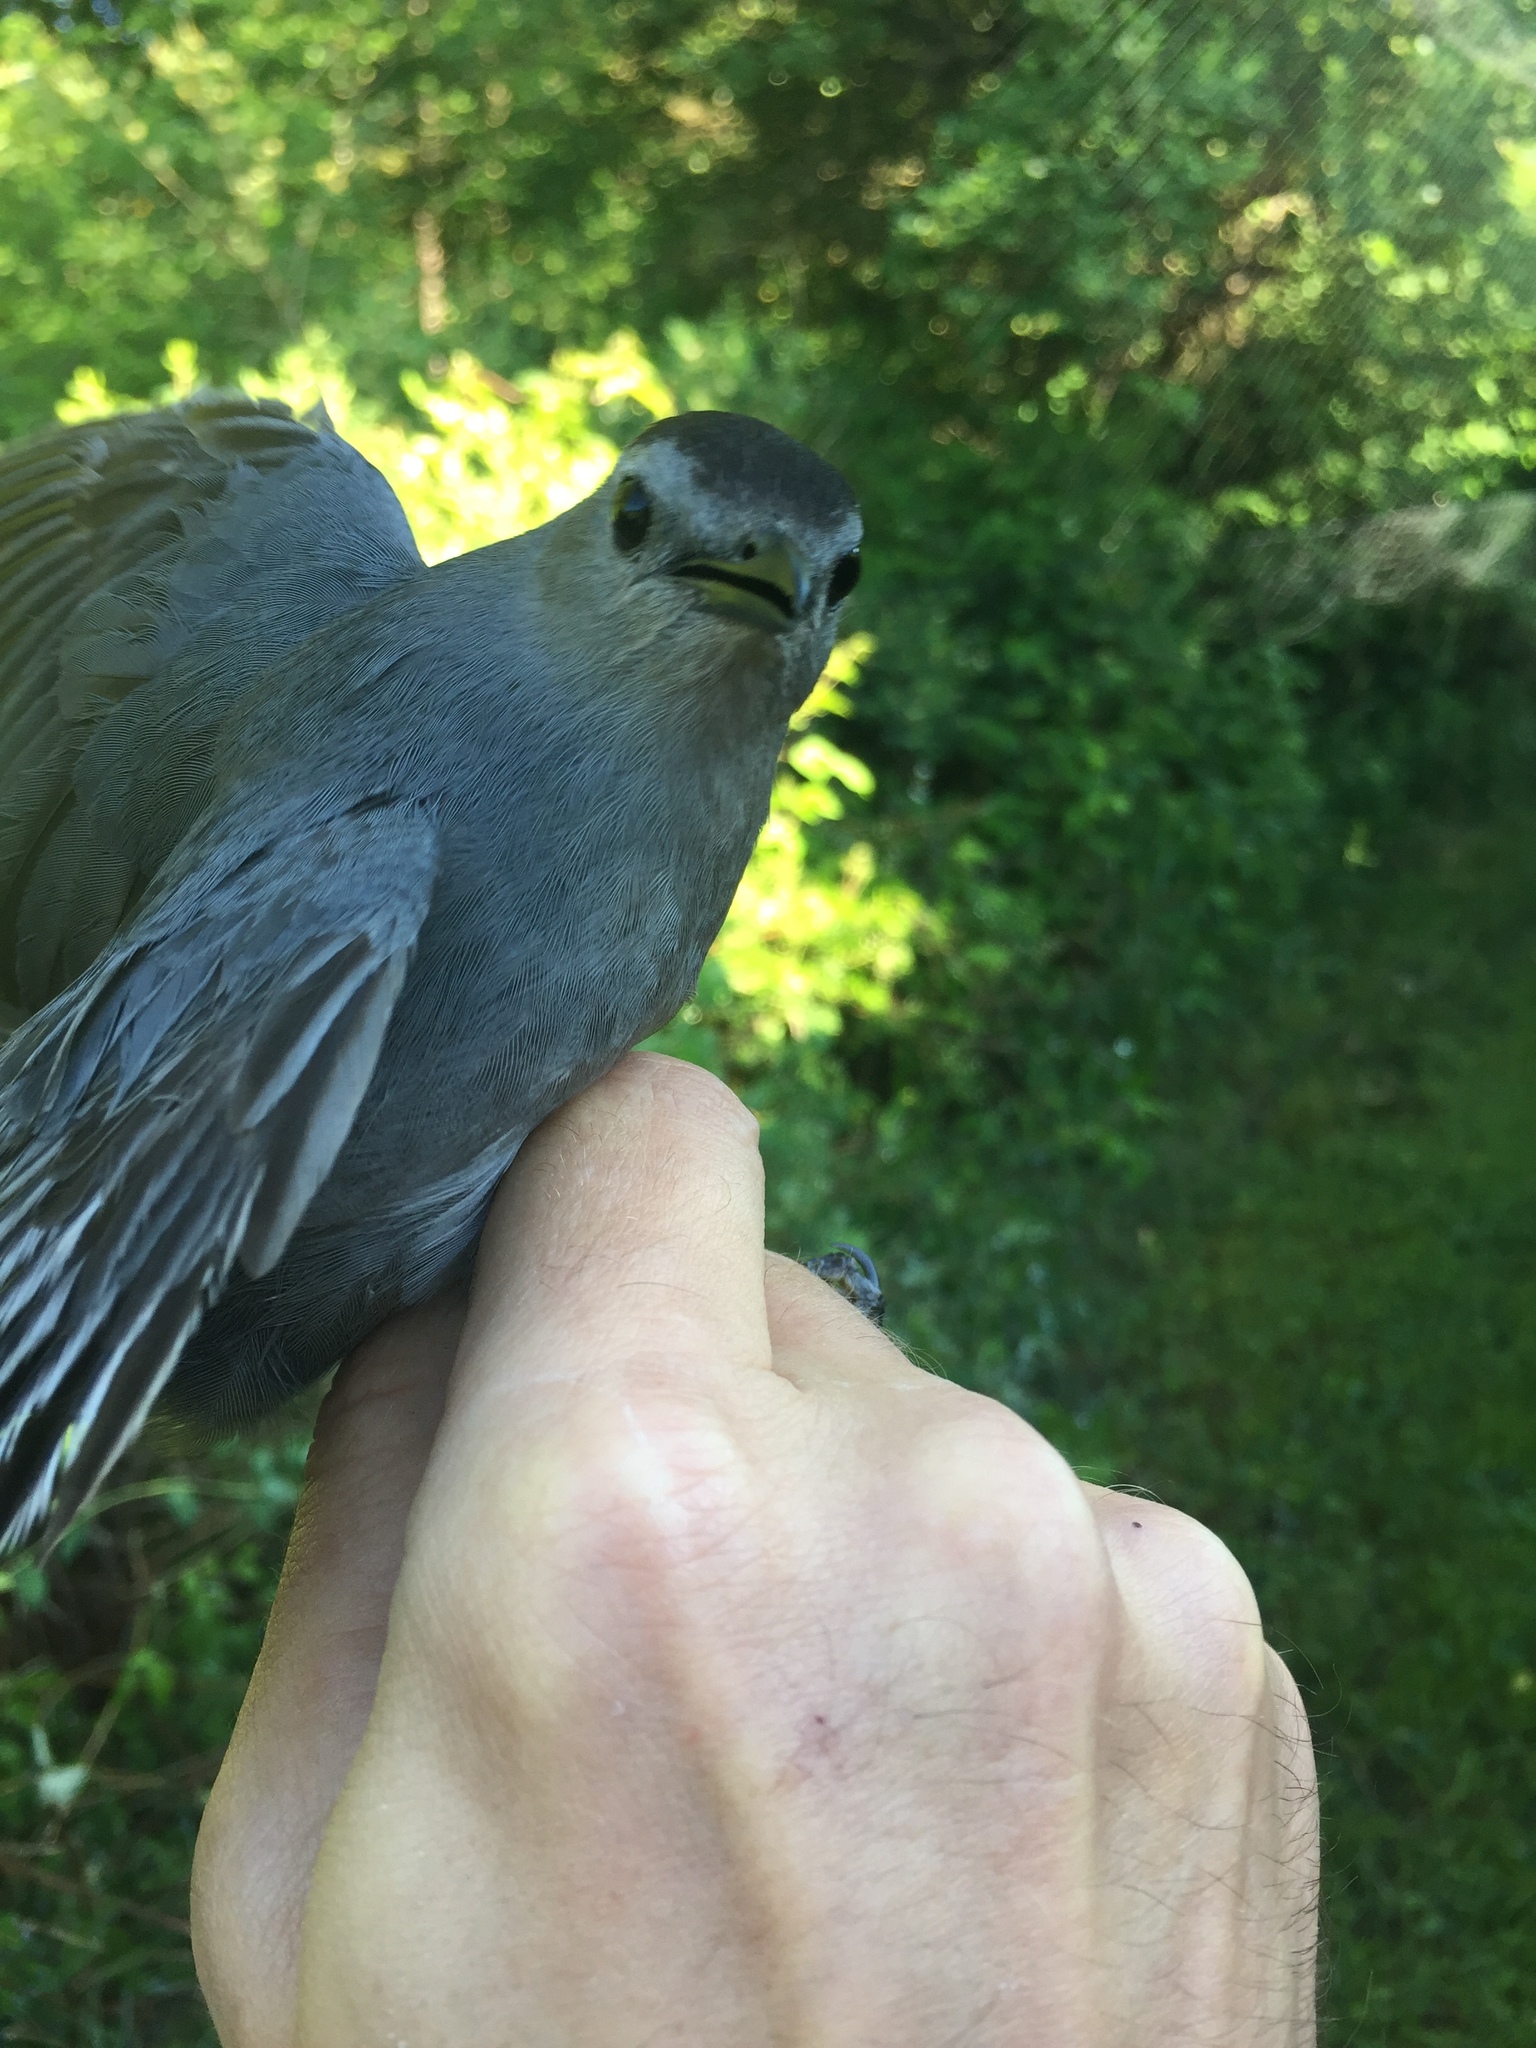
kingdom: Animalia
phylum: Chordata
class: Aves
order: Passeriformes
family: Mimidae
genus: Dumetella
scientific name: Dumetella carolinensis
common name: Gray catbird
